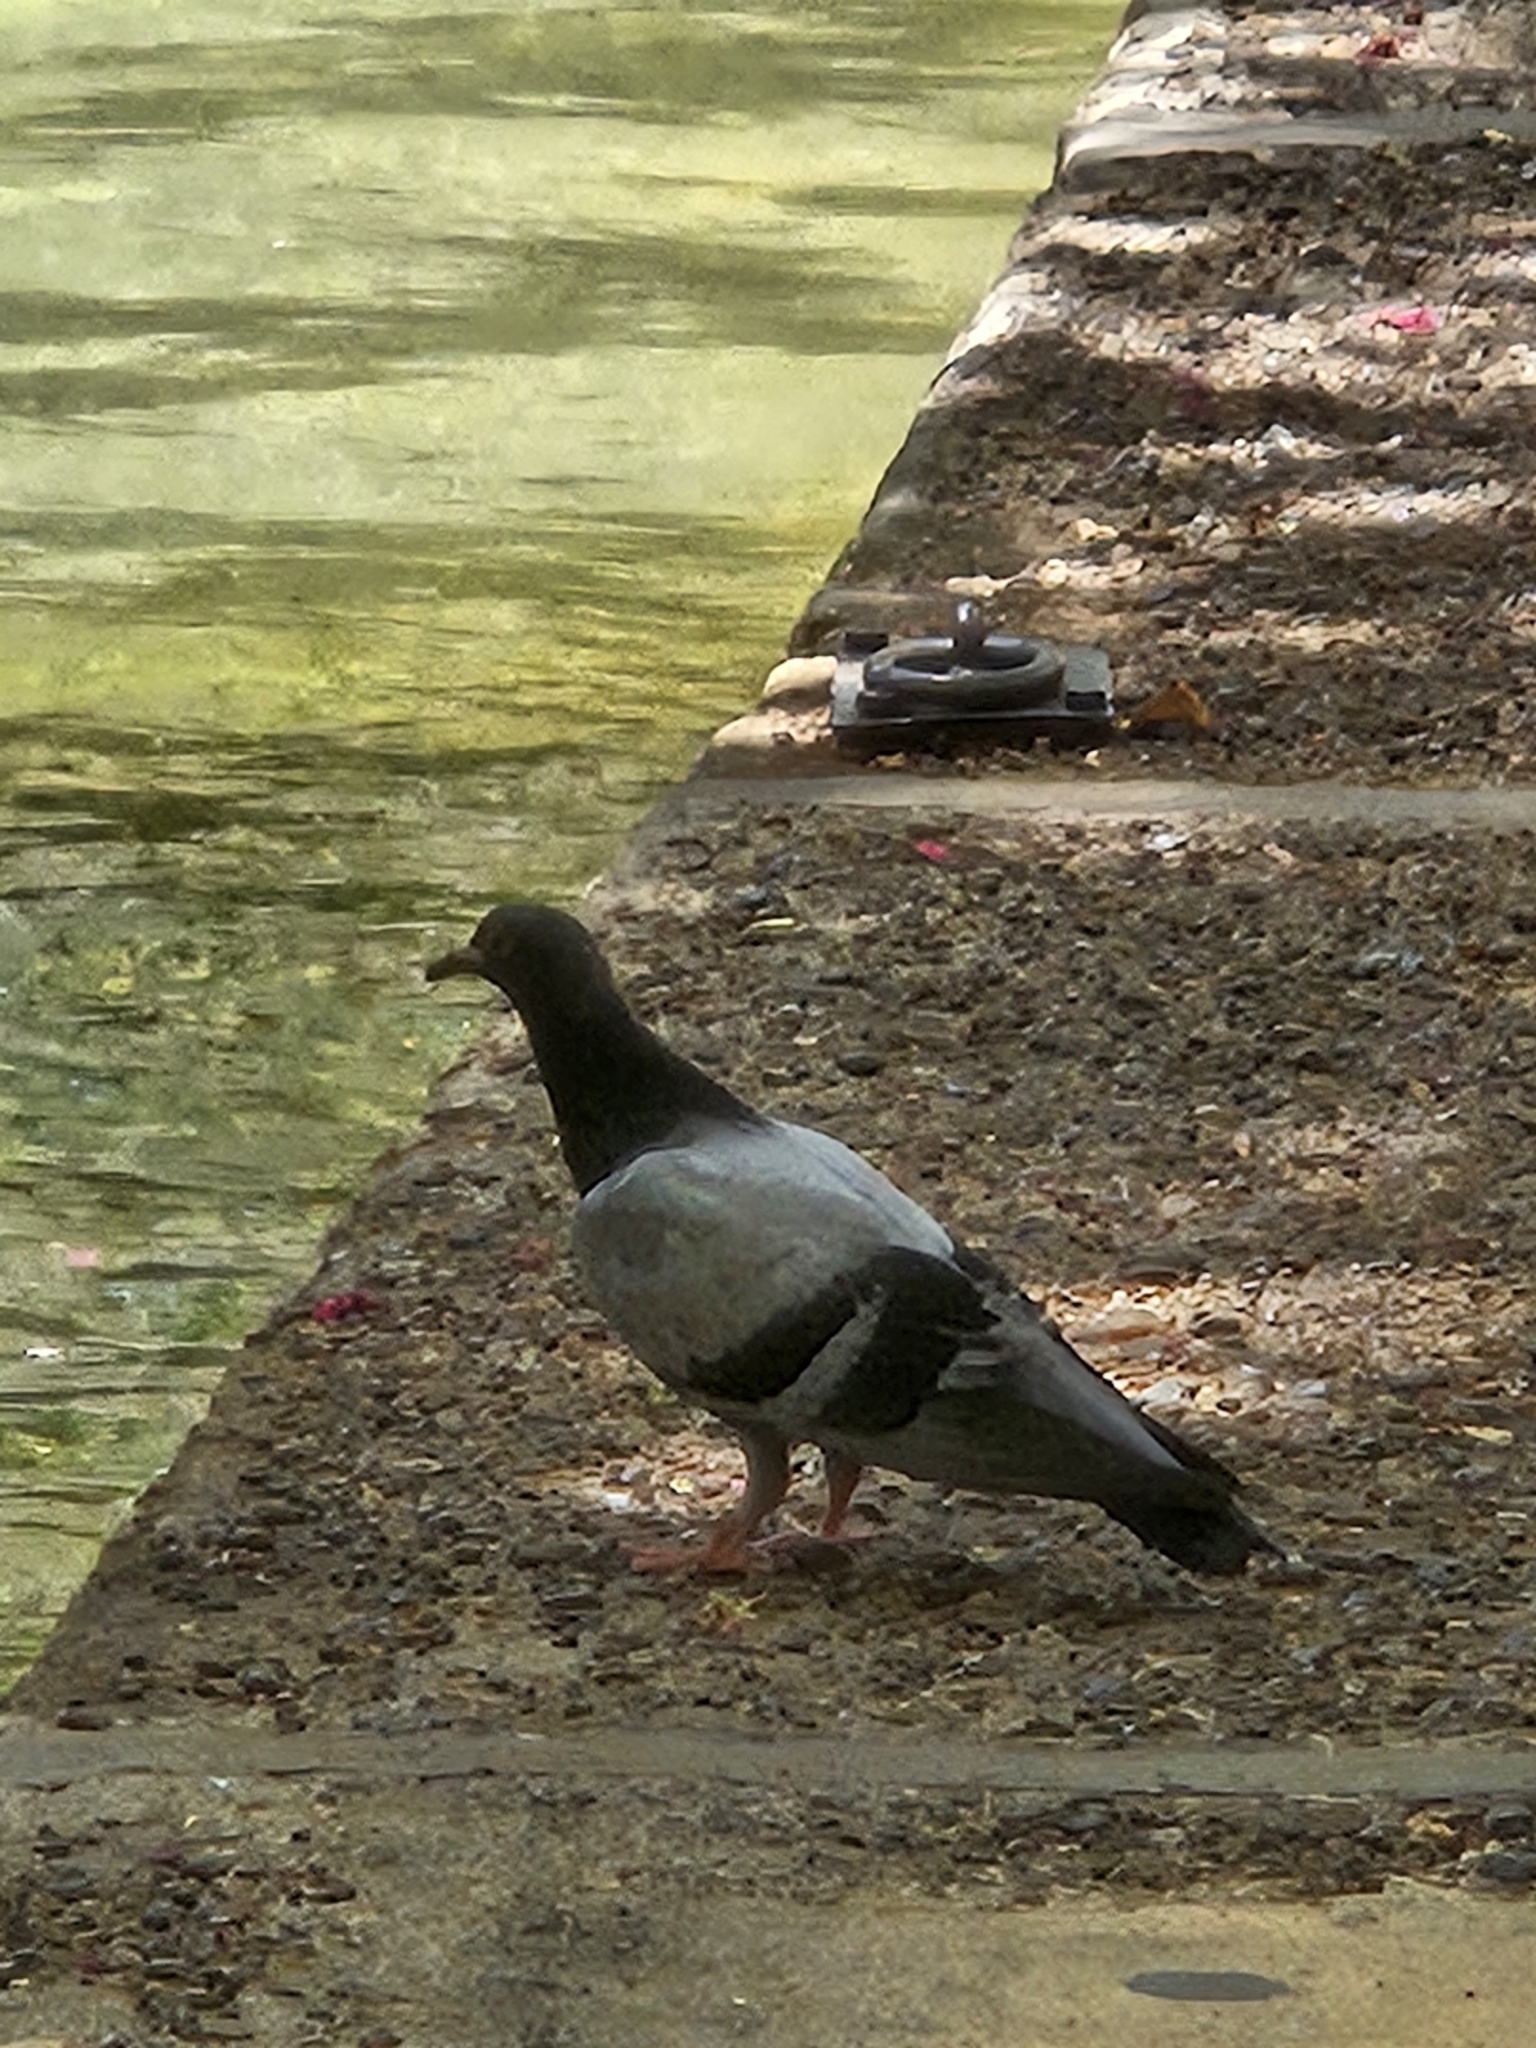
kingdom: Animalia
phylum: Chordata
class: Aves
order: Columbiformes
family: Columbidae
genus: Columba
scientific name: Columba livia
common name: Rock pigeon
